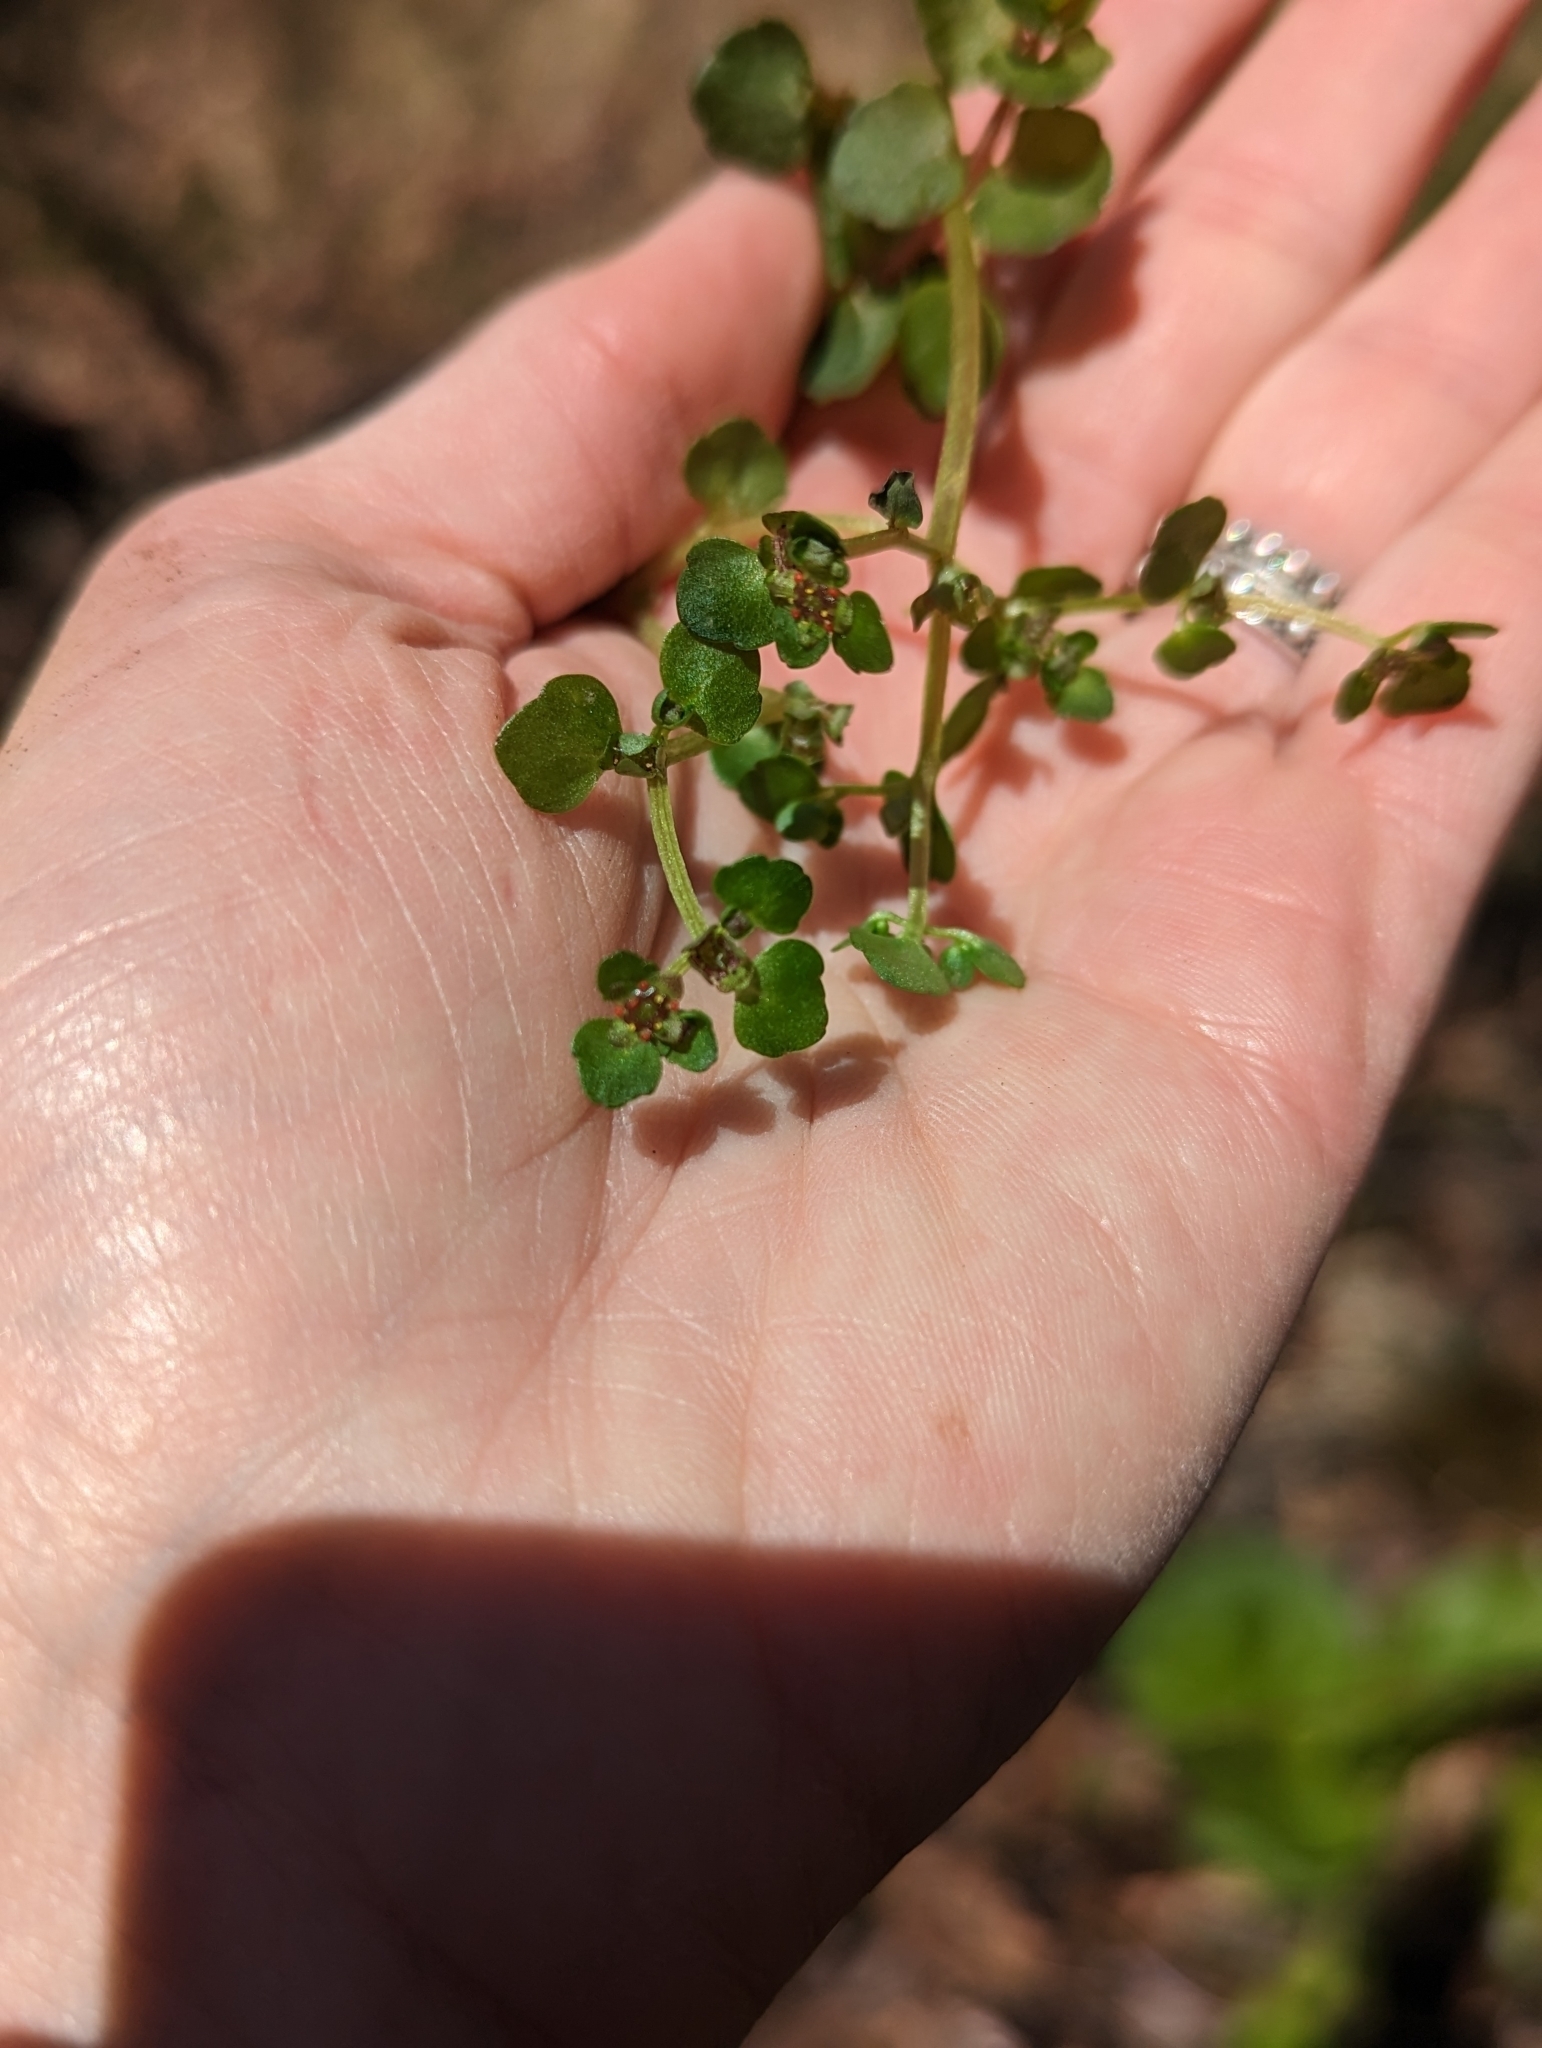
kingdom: Plantae
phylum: Tracheophyta
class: Magnoliopsida
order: Saxifragales
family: Saxifragaceae
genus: Chrysosplenium
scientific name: Chrysosplenium americanum
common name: American golden-saxifrage
